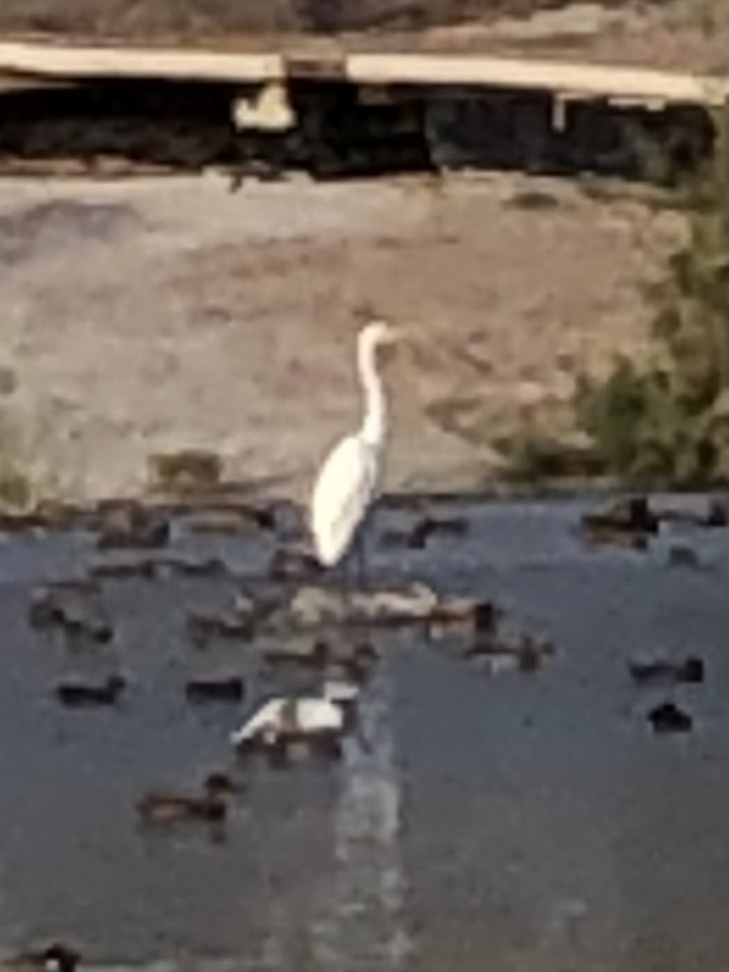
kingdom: Animalia
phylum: Chordata
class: Aves
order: Pelecaniformes
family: Ardeidae
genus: Ardea
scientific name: Ardea alba
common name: Great egret
